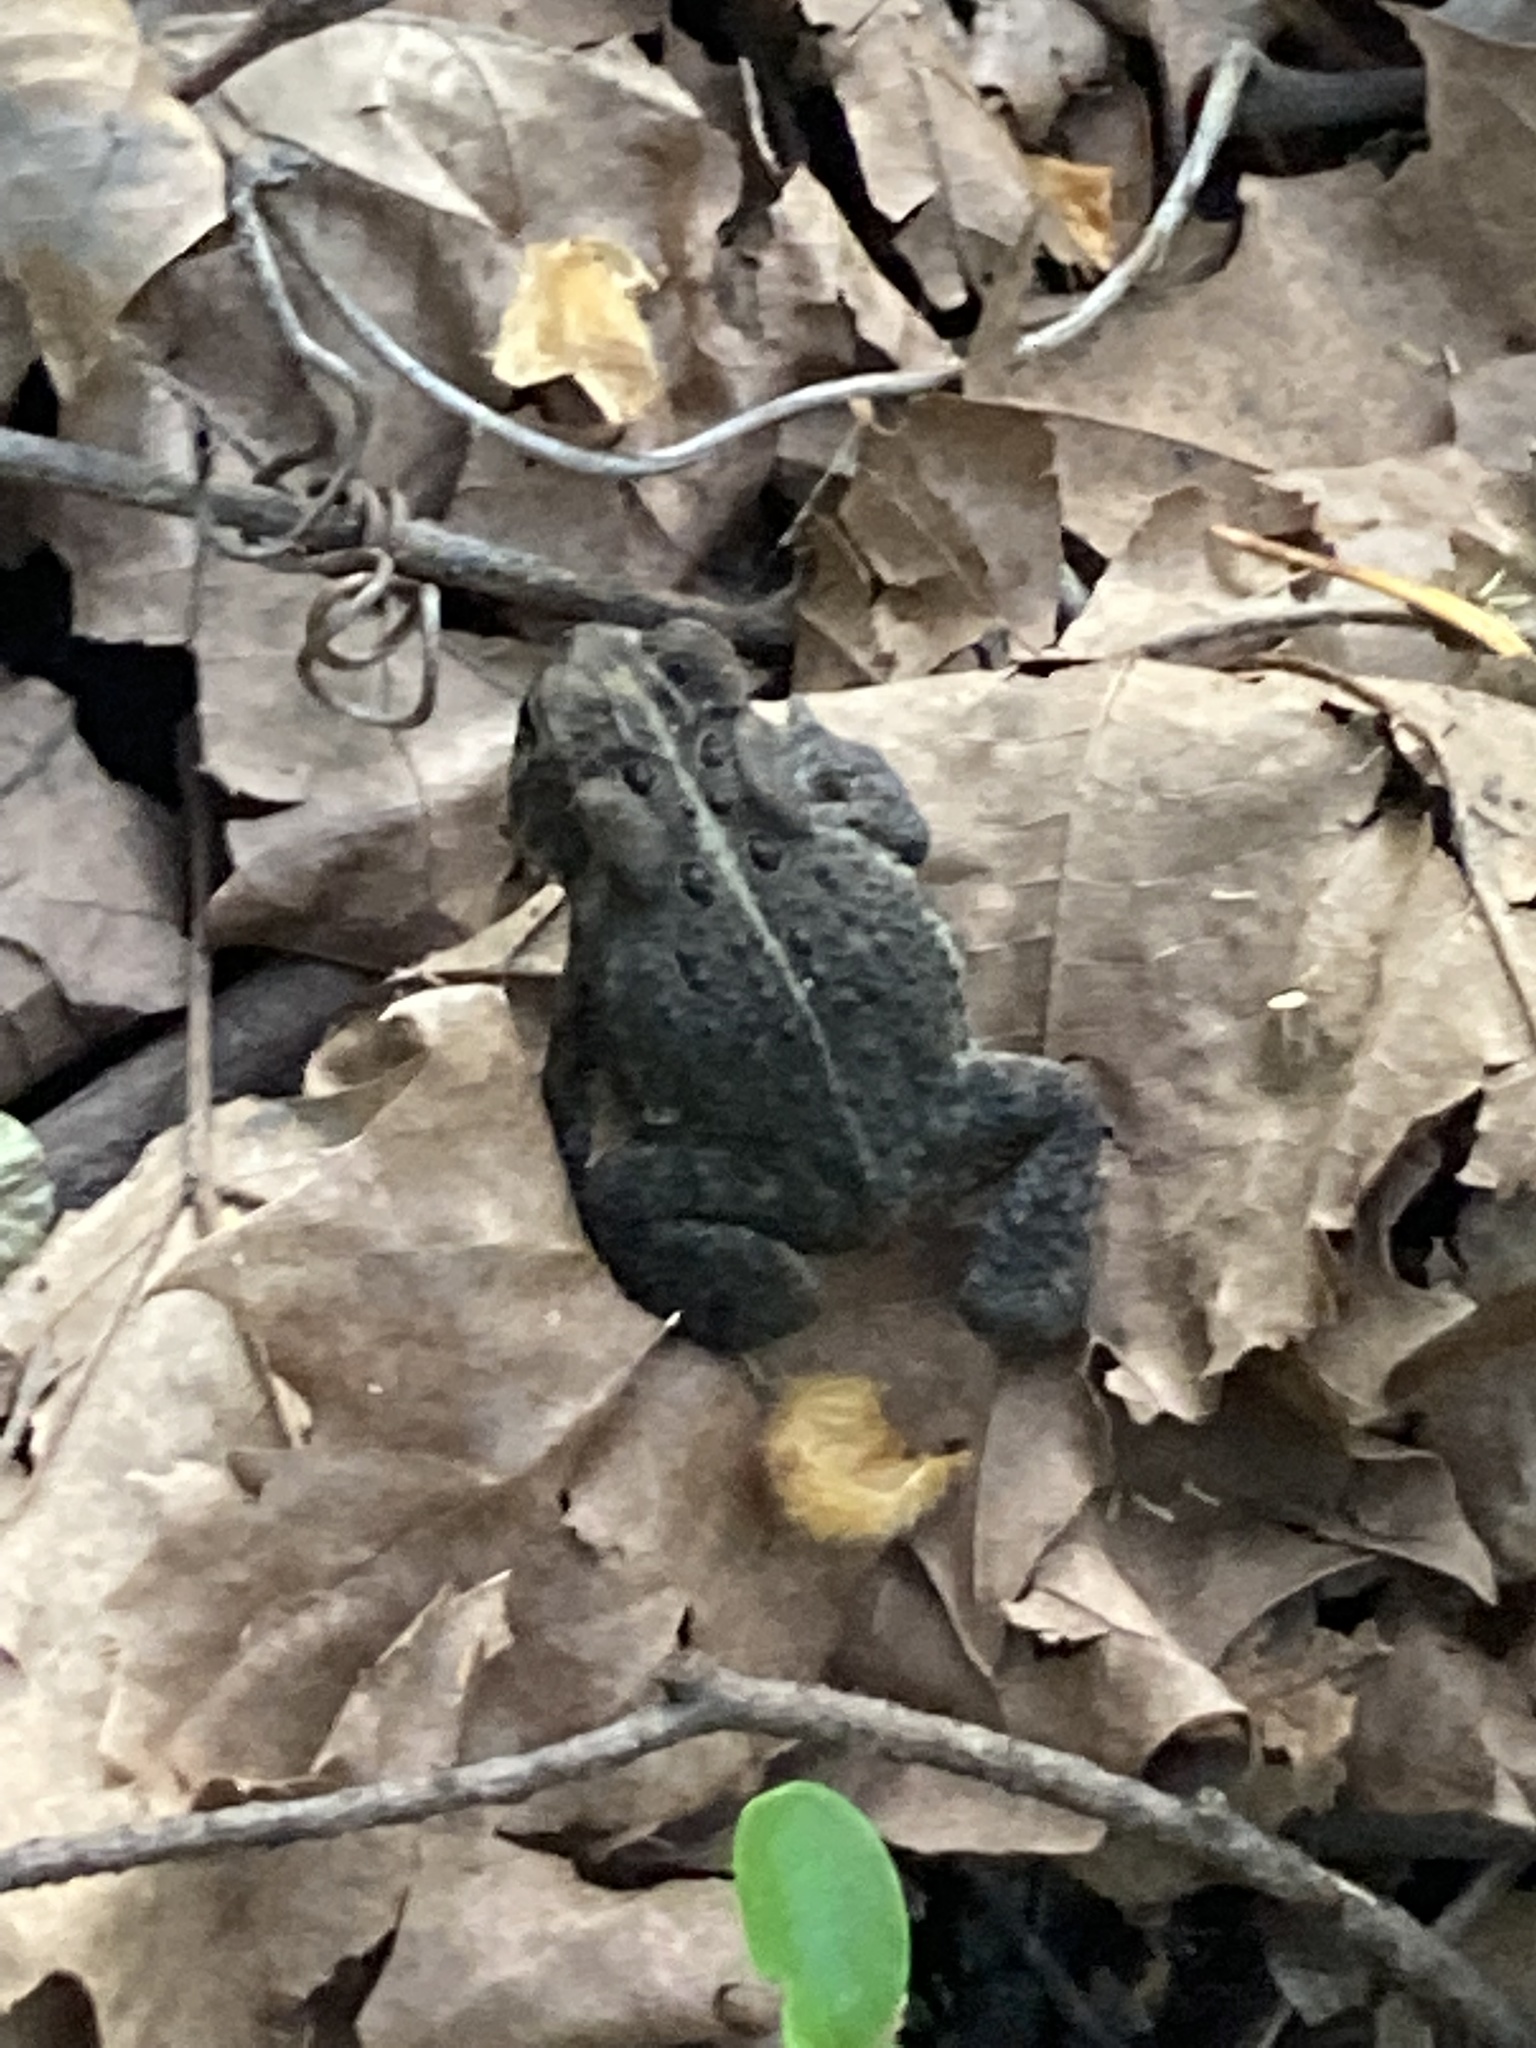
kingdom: Animalia
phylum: Chordata
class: Amphibia
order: Anura
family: Bufonidae
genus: Anaxyrus
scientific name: Anaxyrus americanus
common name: American toad
